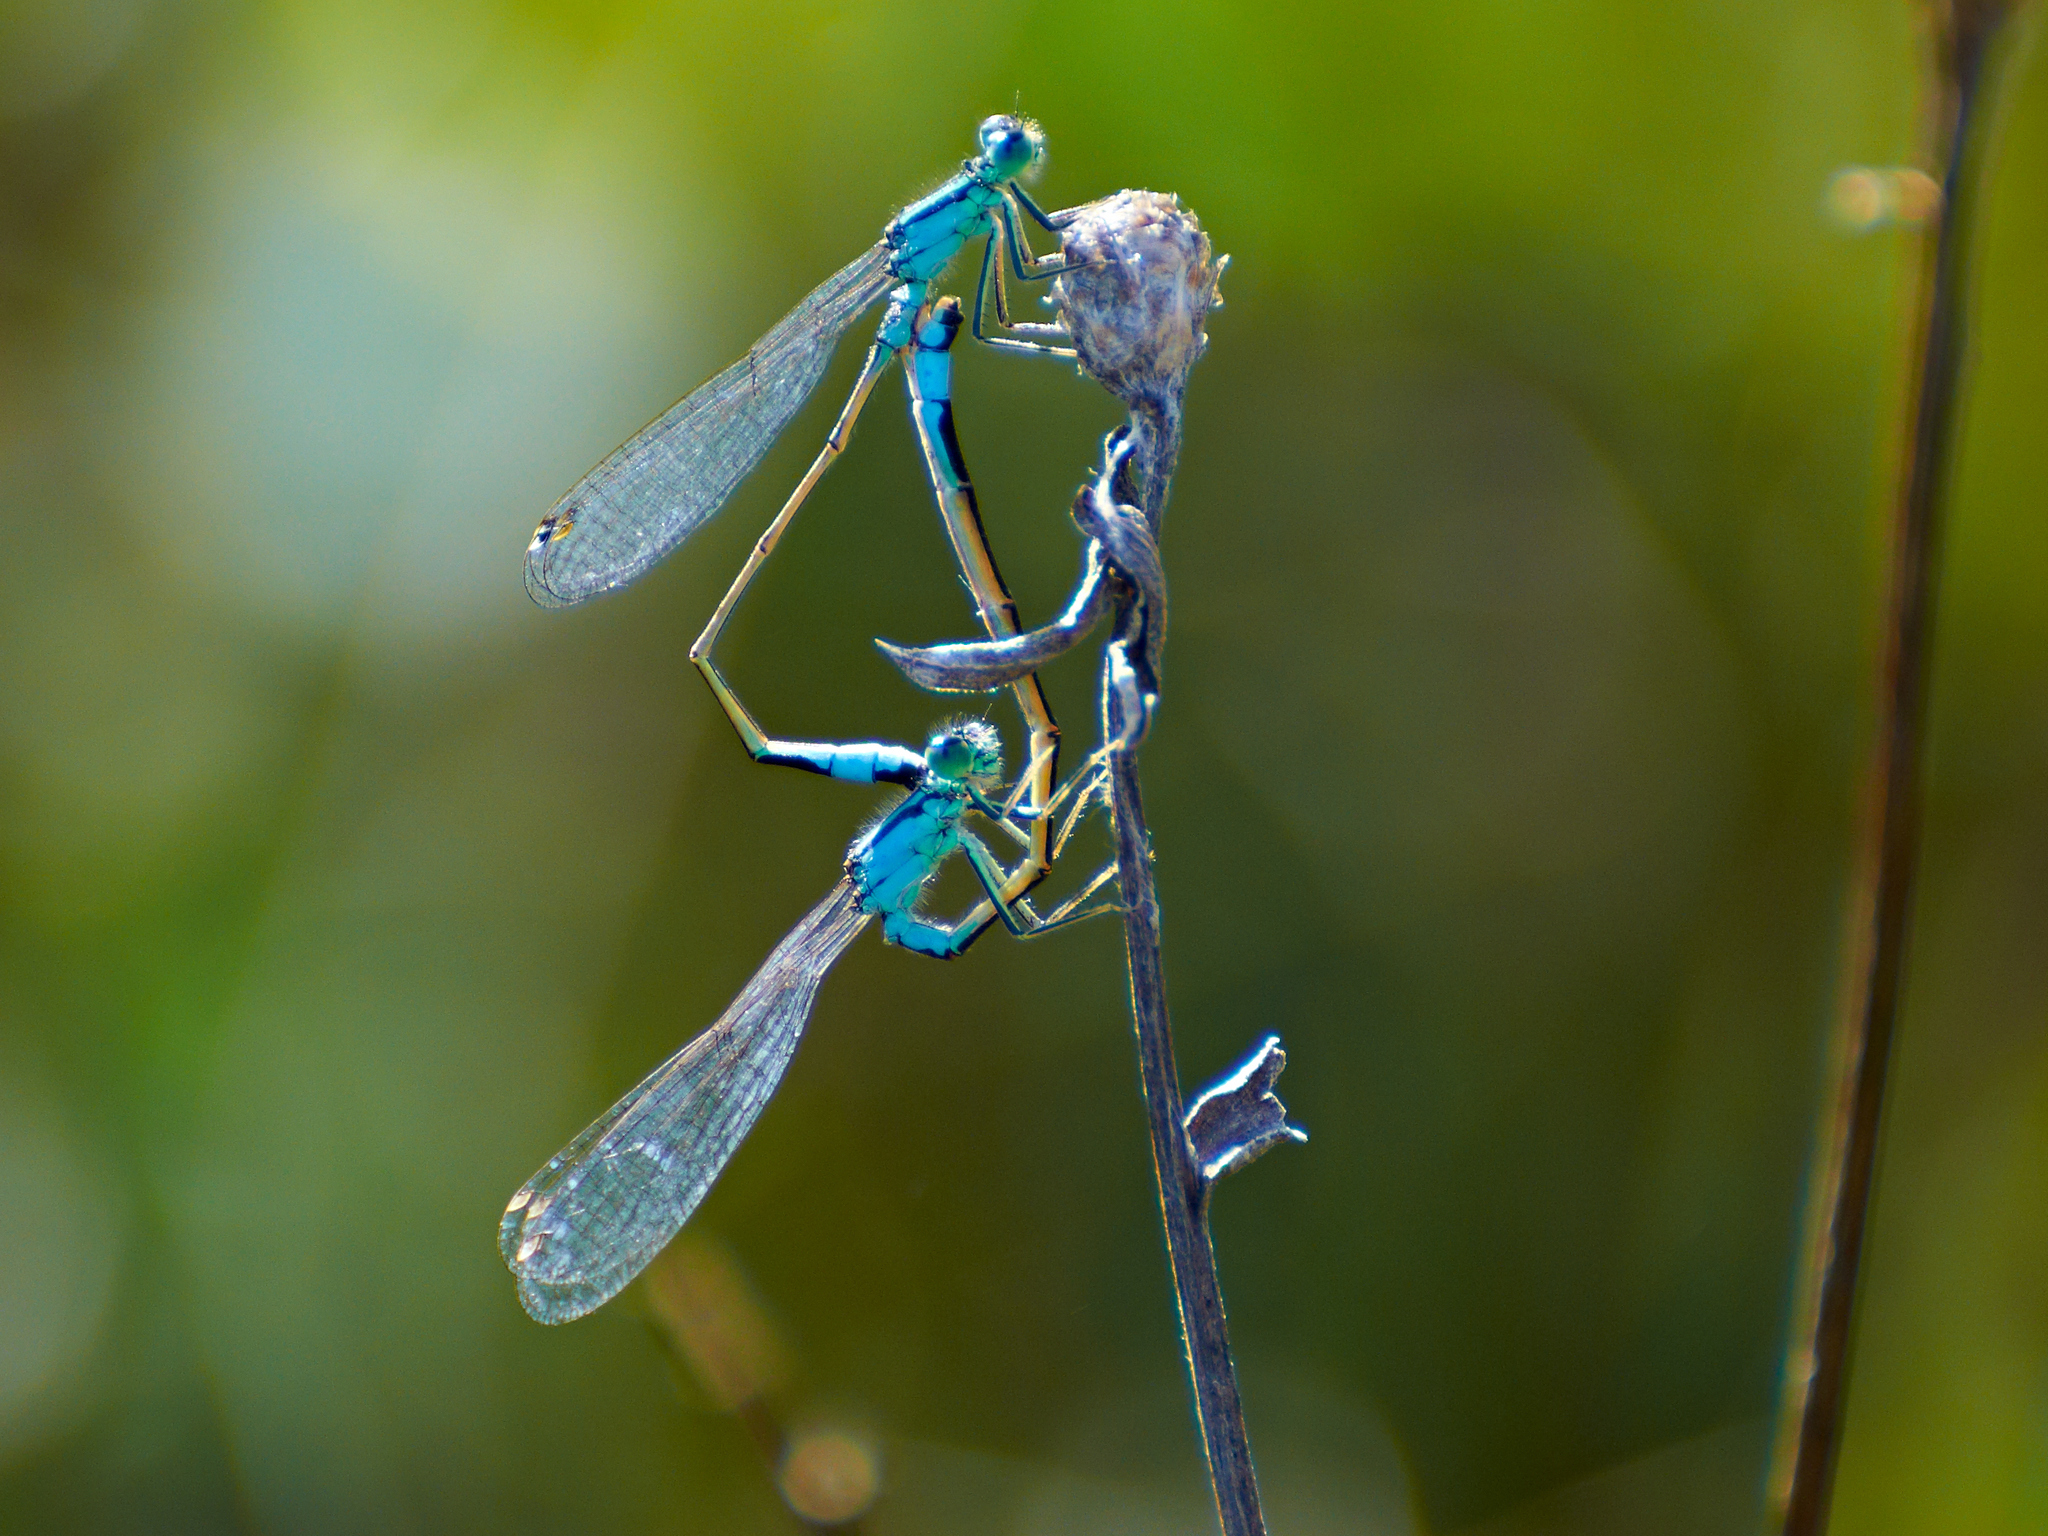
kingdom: Animalia
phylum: Arthropoda
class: Insecta
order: Odonata
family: Coenagrionidae
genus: Ischnura
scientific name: Ischnura elegans
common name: Blue-tailed damselfly
